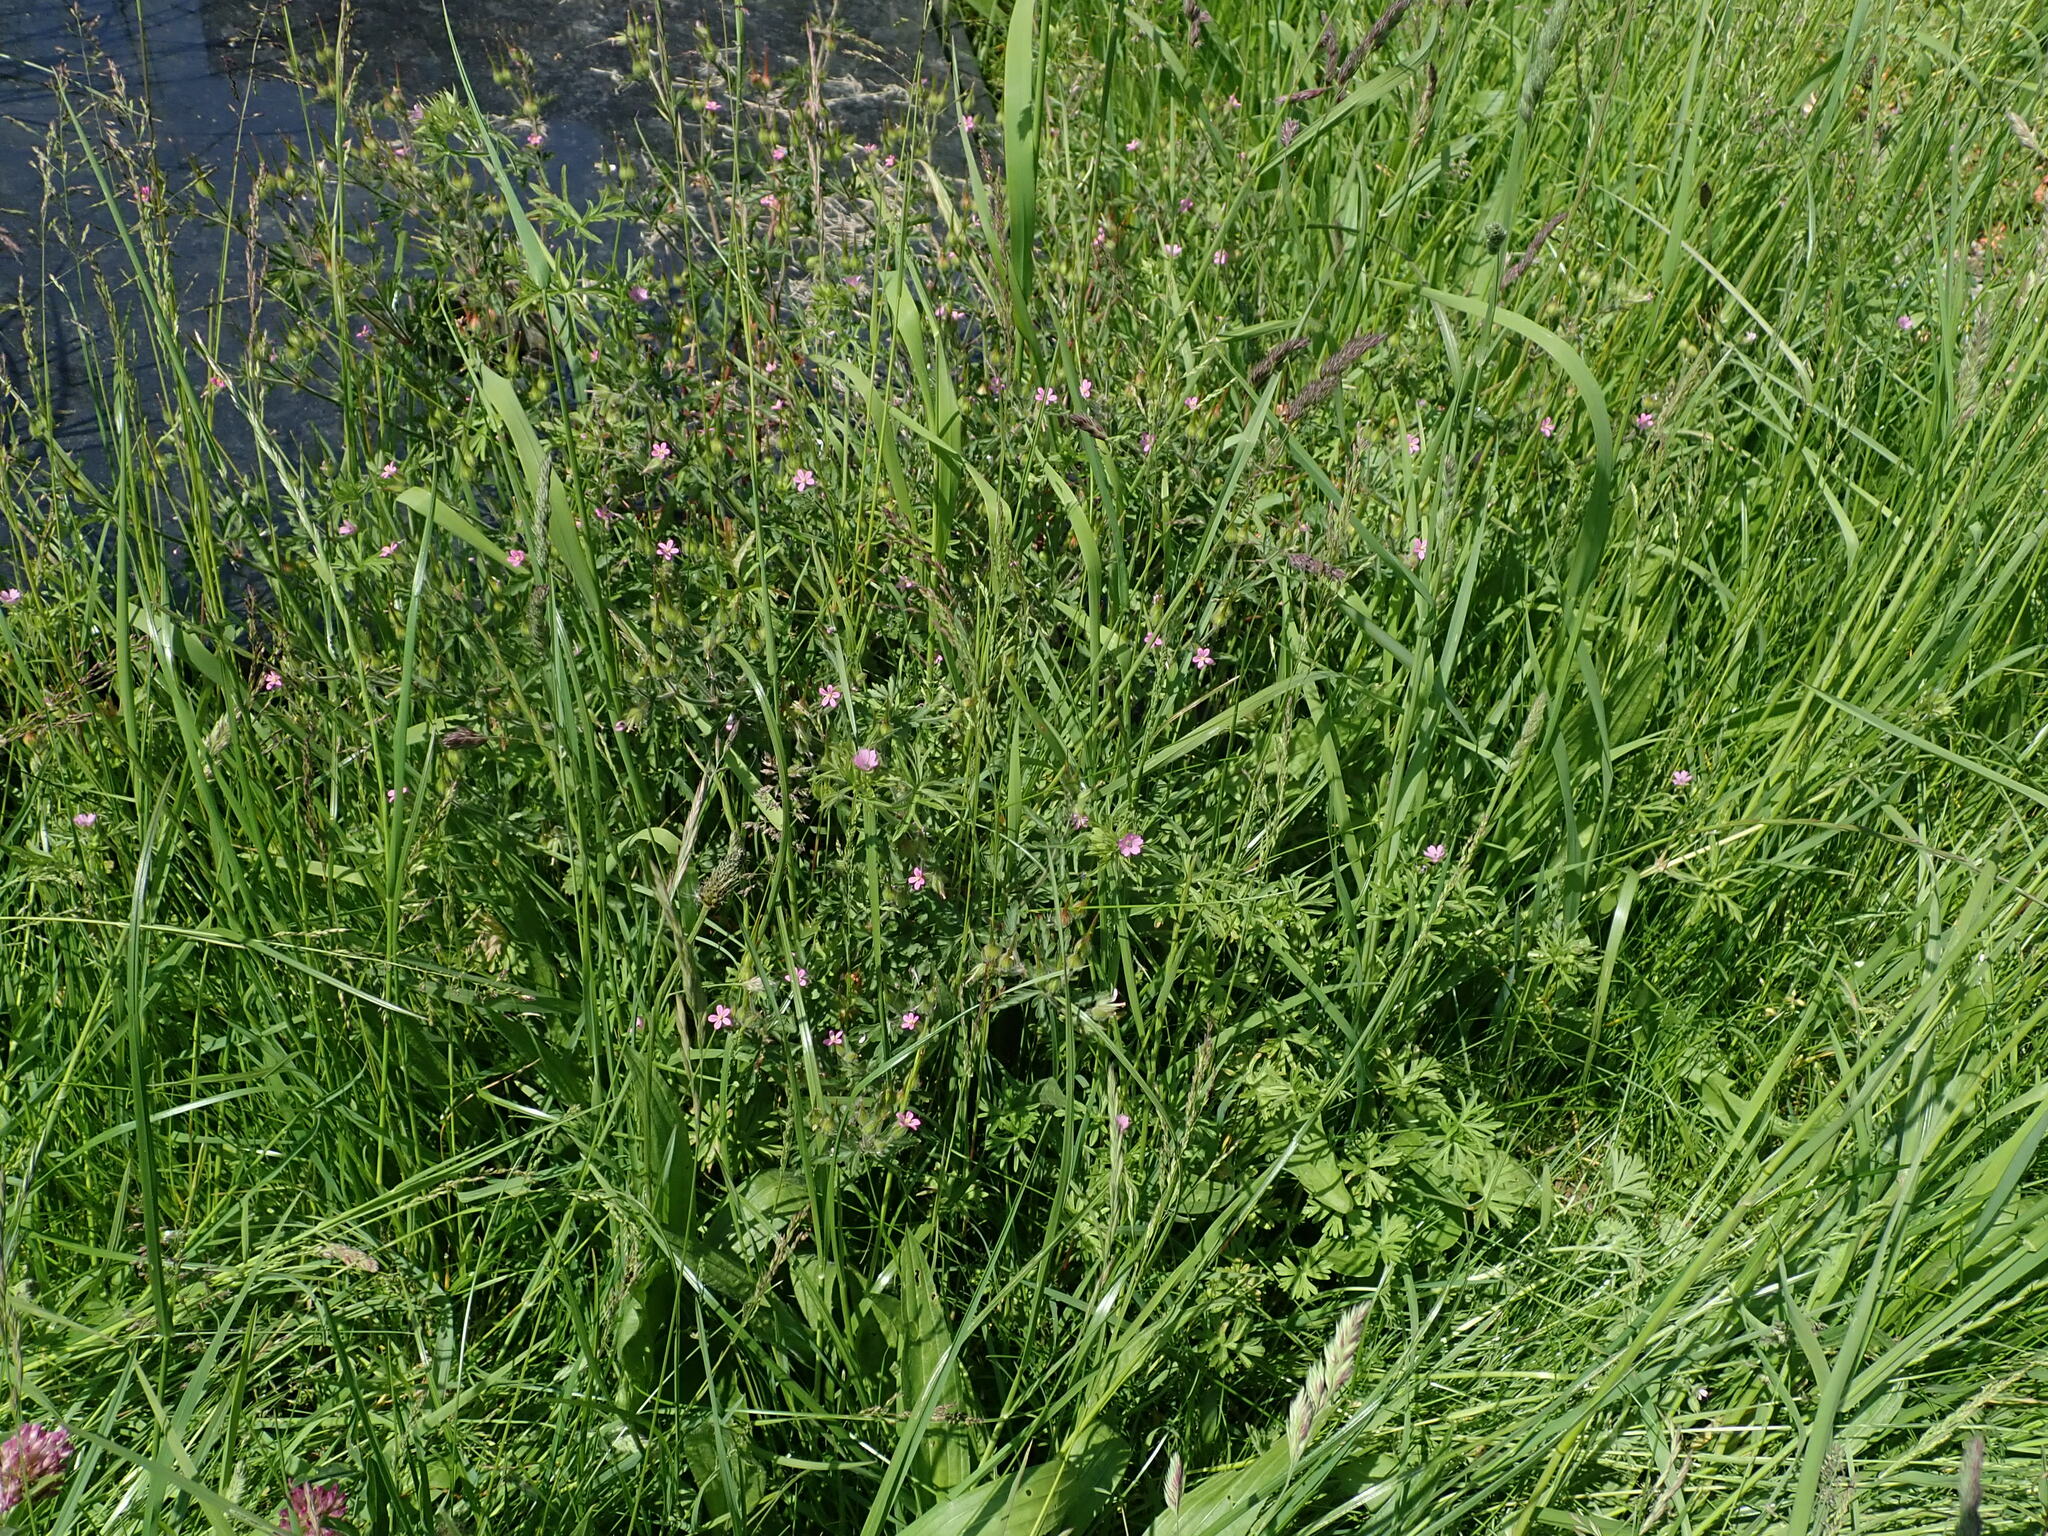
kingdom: Plantae
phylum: Tracheophyta
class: Magnoliopsida
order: Geraniales
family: Geraniaceae
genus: Geranium
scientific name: Geranium purpureum
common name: Little-robin
